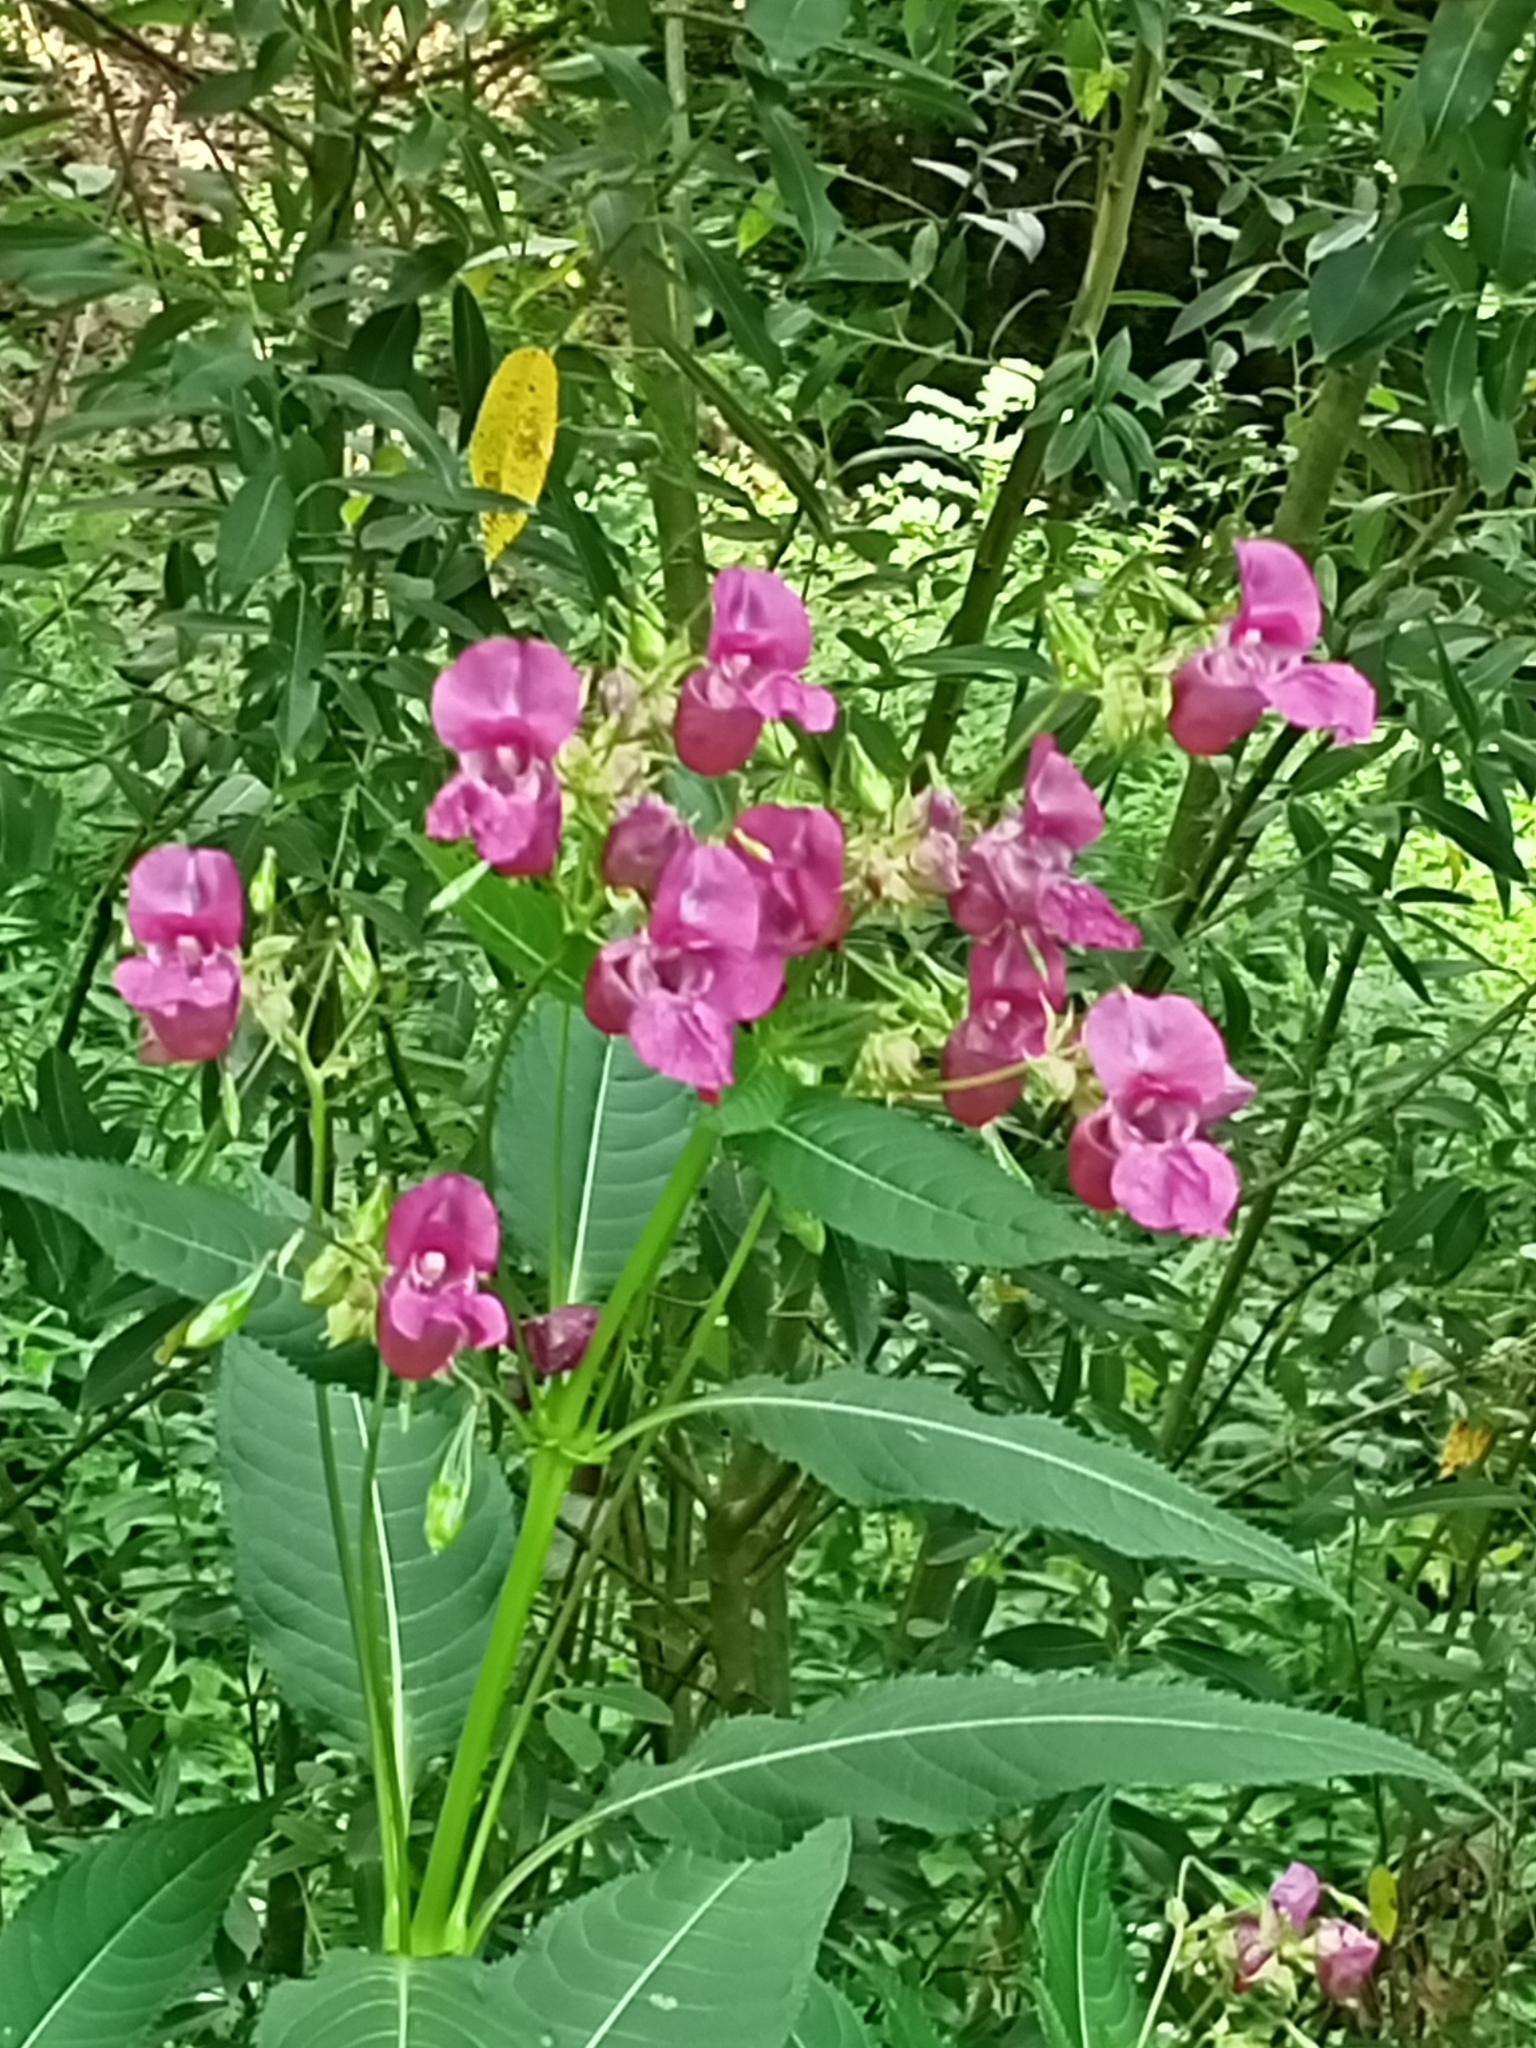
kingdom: Plantae
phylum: Tracheophyta
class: Magnoliopsida
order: Ericales
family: Balsaminaceae
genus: Impatiens
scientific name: Impatiens glandulifera
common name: Himalayan balsam
